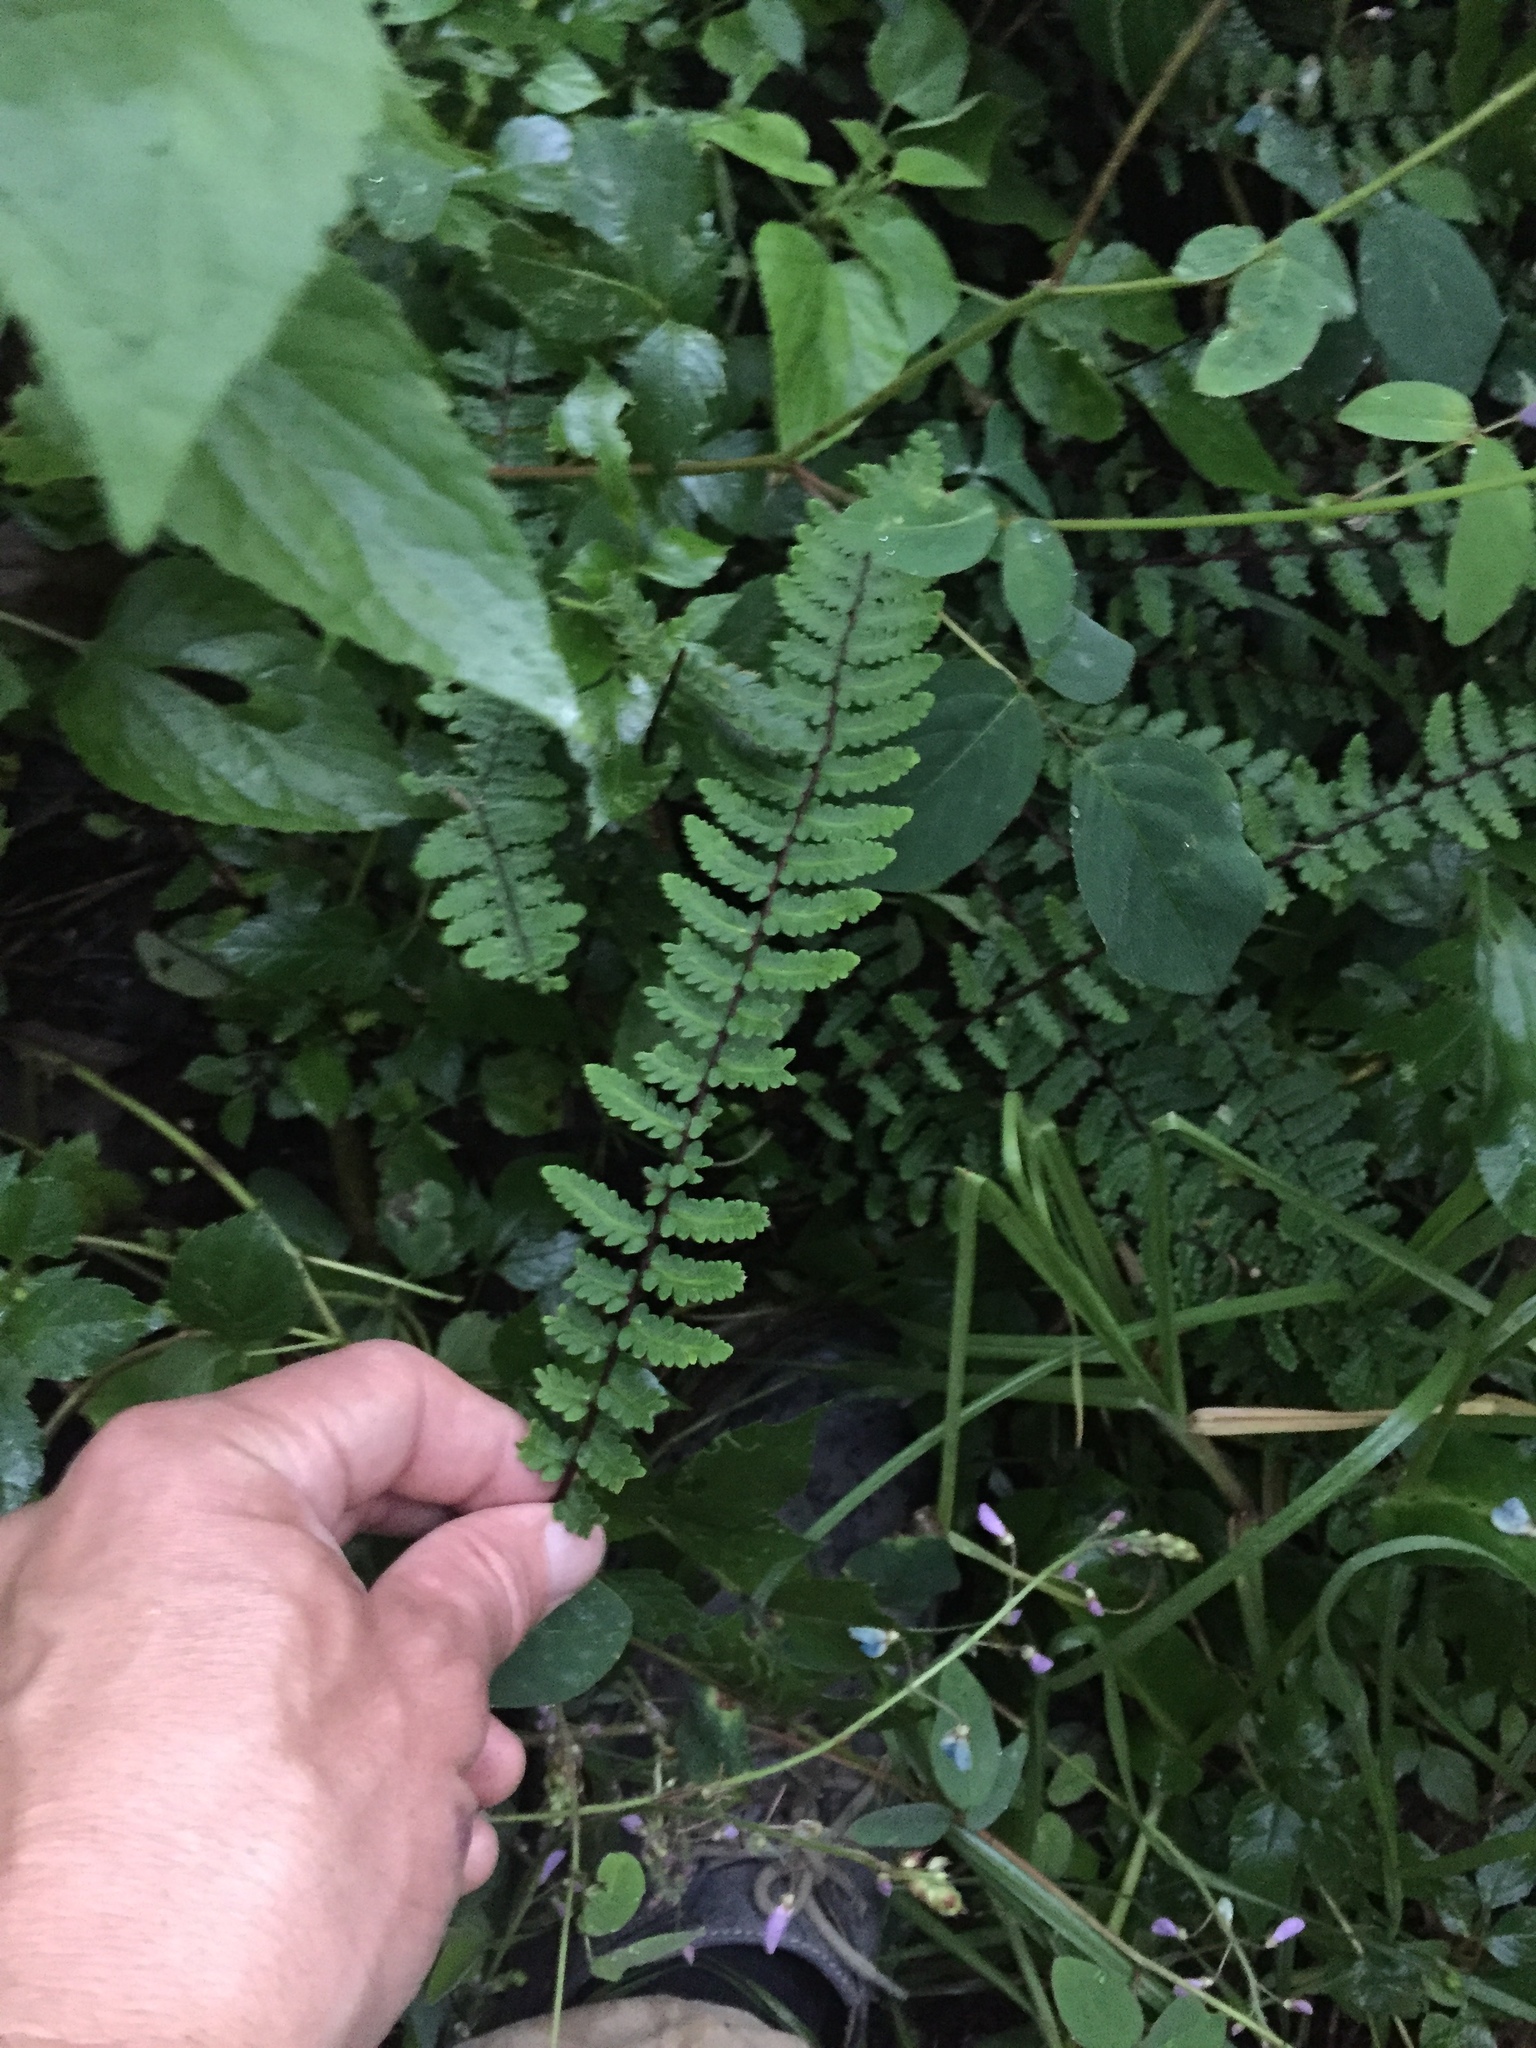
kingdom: Plantae
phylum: Tracheophyta
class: Polypodiopsida
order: Polypodiales
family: Pteridaceae
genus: Myriopteris
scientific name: Myriopteris aurea
